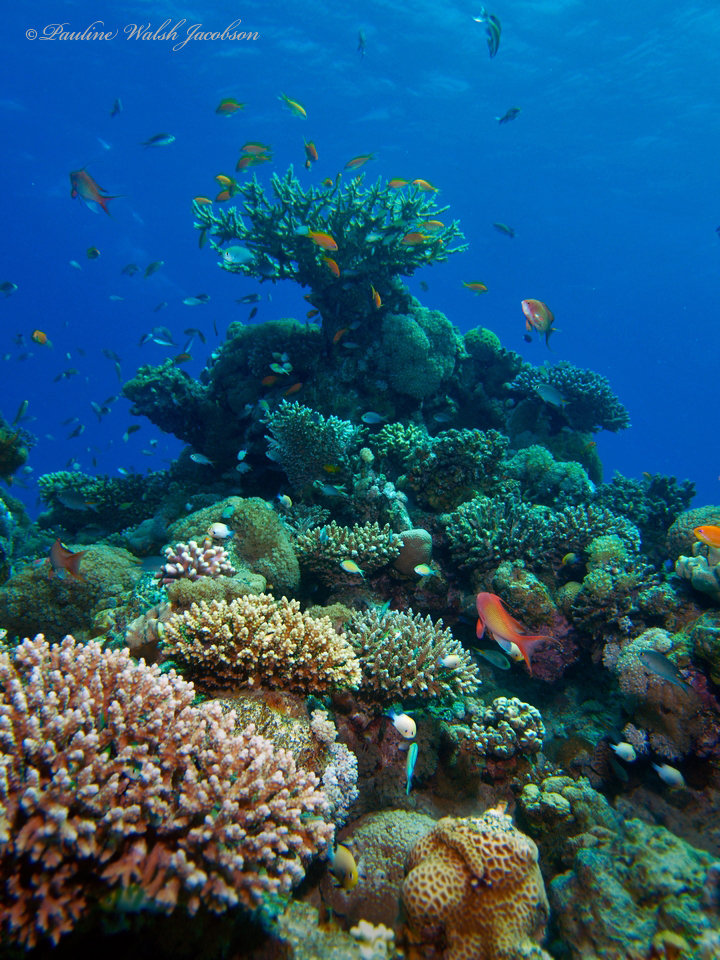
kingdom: Animalia
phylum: Chordata
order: Perciformes
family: Serranidae
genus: Pseudanthias
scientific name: Pseudanthias squamipinnis
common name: Scalefin anthias
